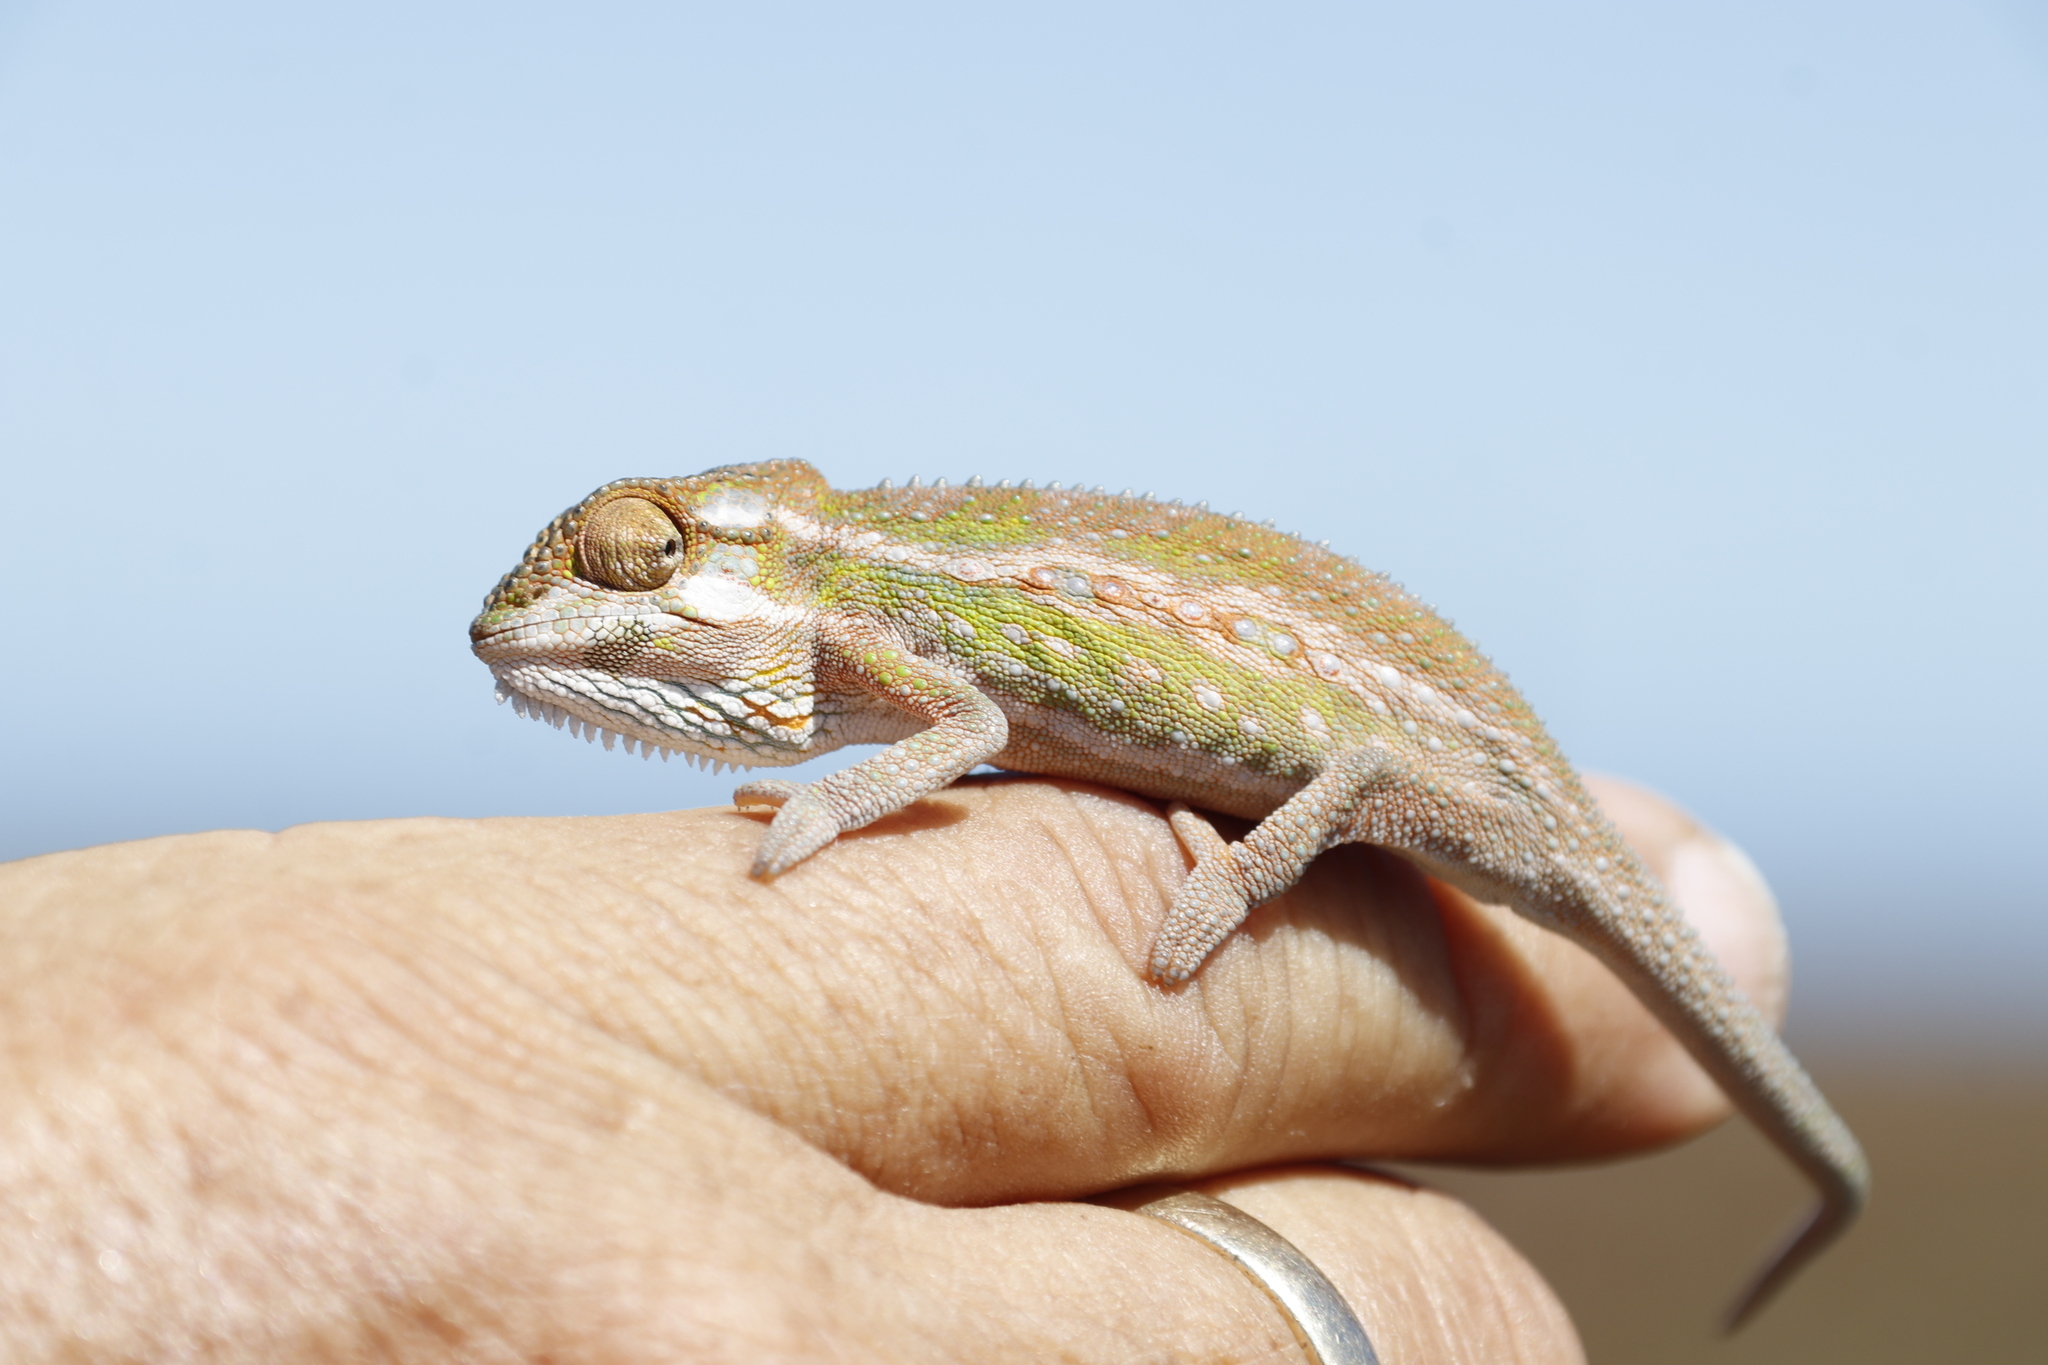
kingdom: Animalia
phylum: Chordata
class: Squamata
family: Chamaeleonidae
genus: Bradypodion
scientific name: Bradypodion pumilum
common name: Cape dwarf chameleon
